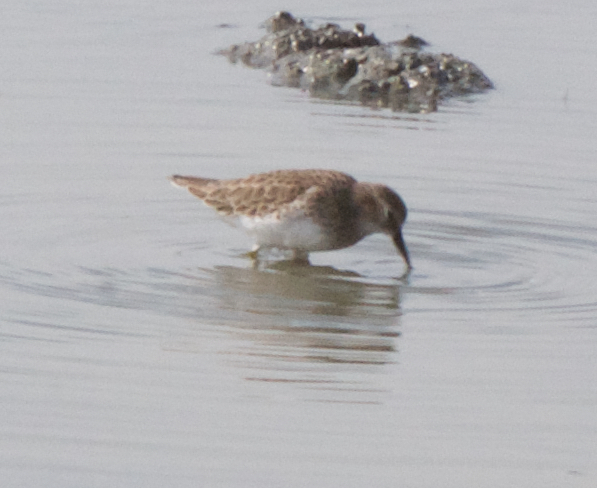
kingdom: Animalia
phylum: Chordata
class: Aves
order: Charadriiformes
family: Scolopacidae
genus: Calidris
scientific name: Calidris minutilla
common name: Least sandpiper
